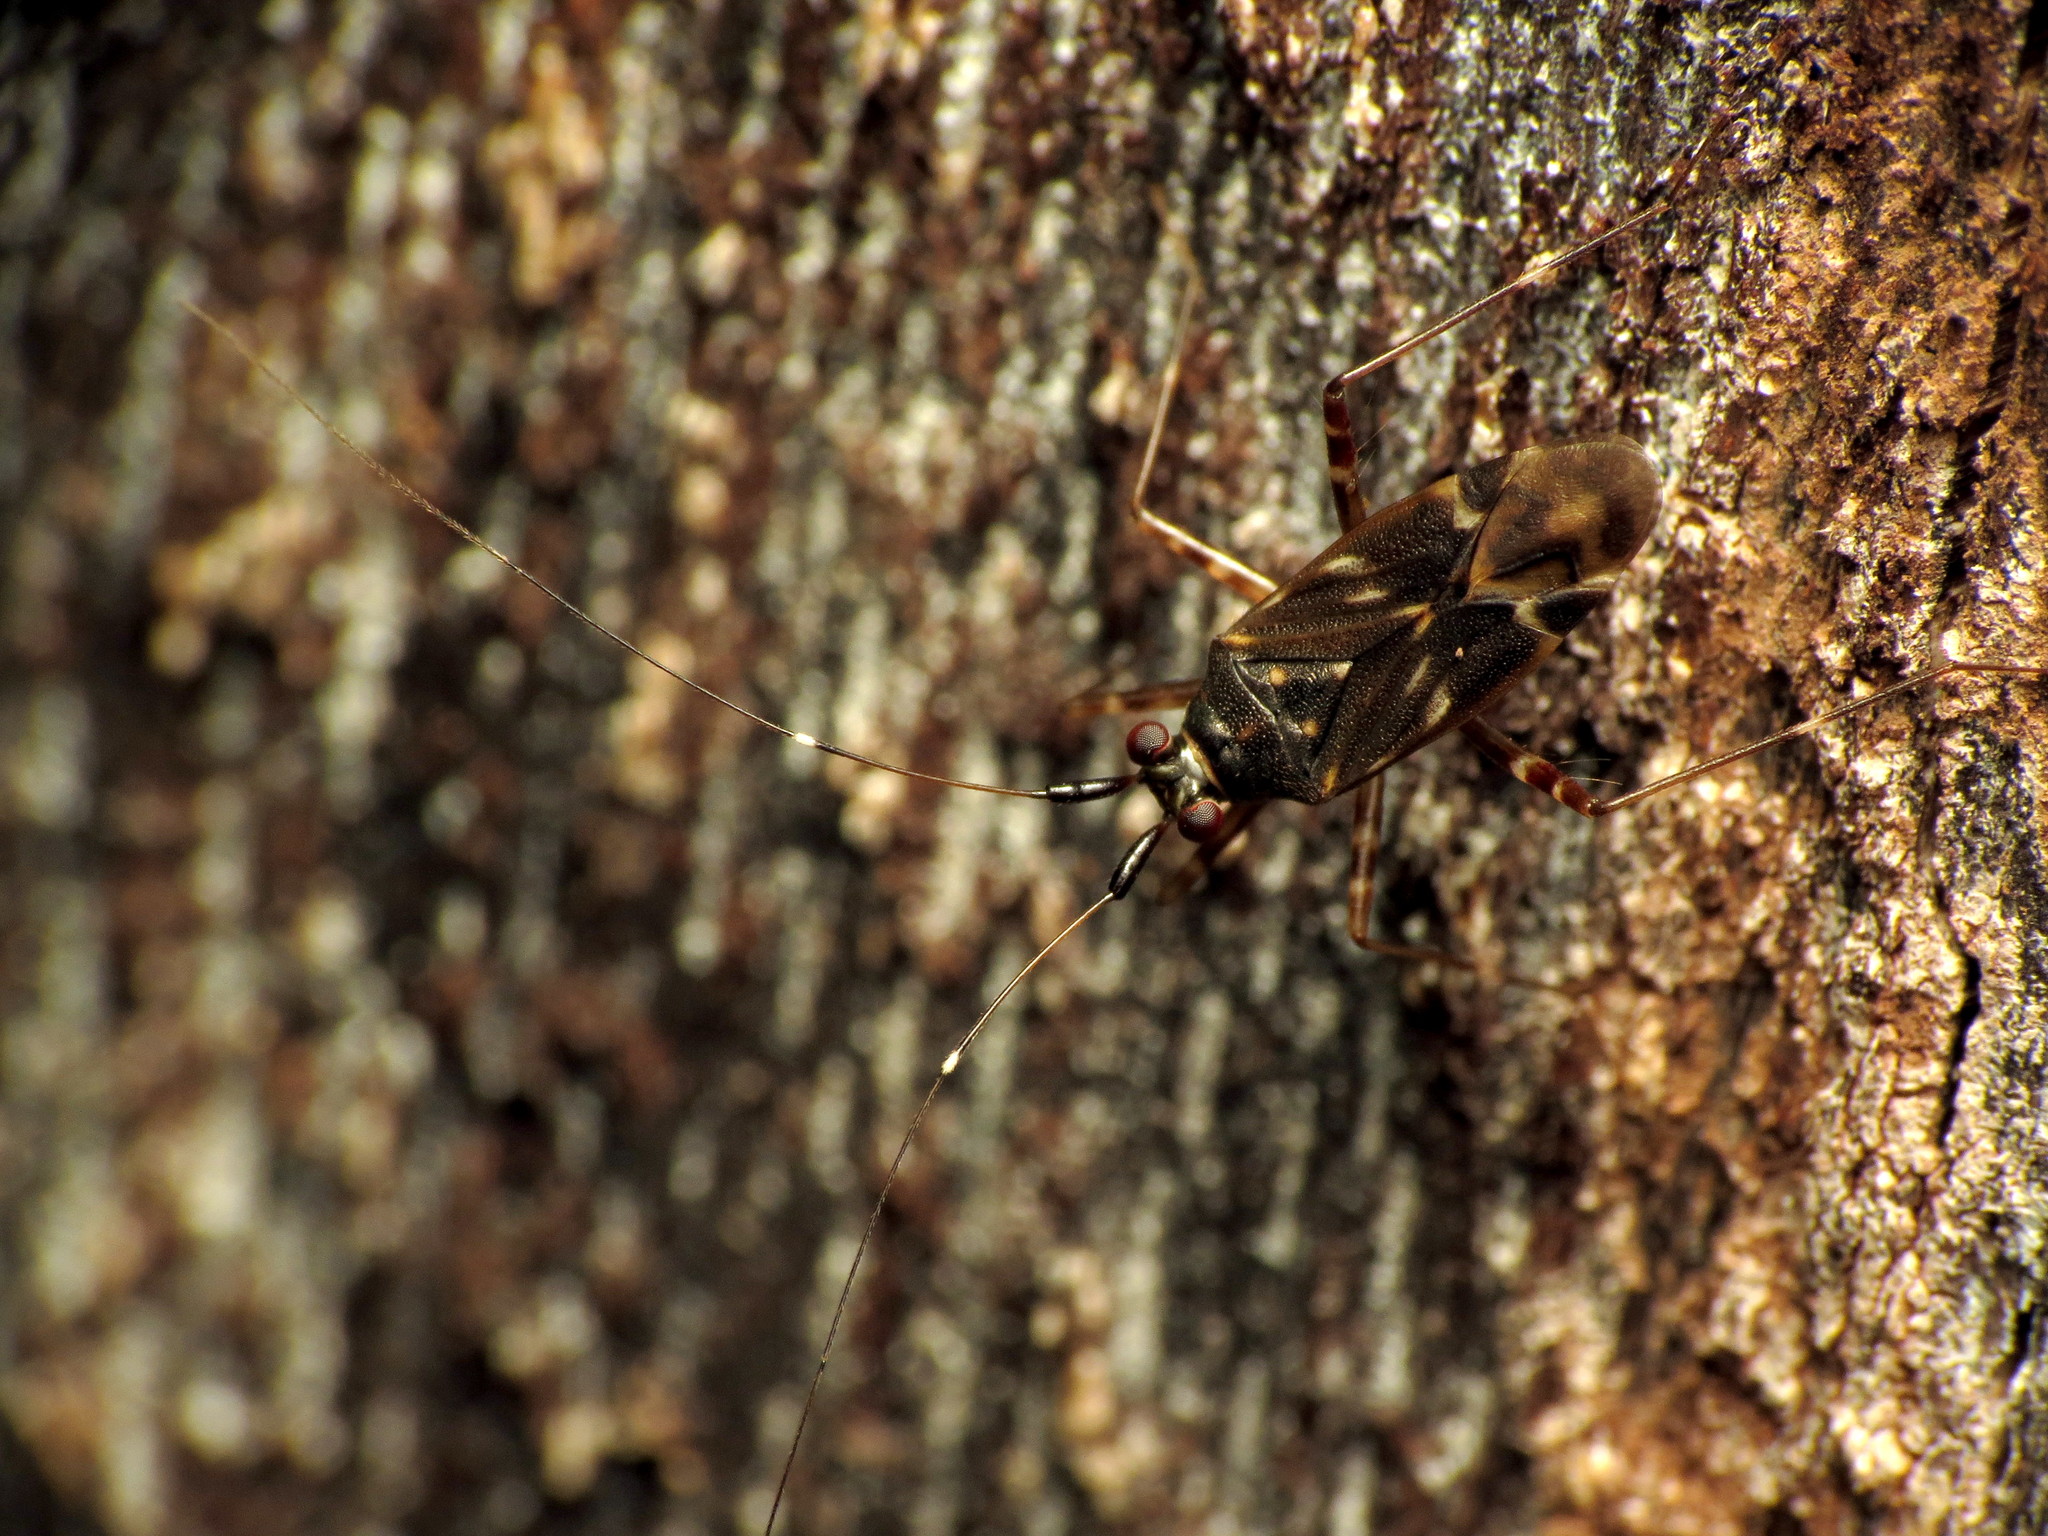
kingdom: Animalia
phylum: Arthropoda
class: Insecta
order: Hemiptera
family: Miridae
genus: Cylapus
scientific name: Cylapus tenuicornis
